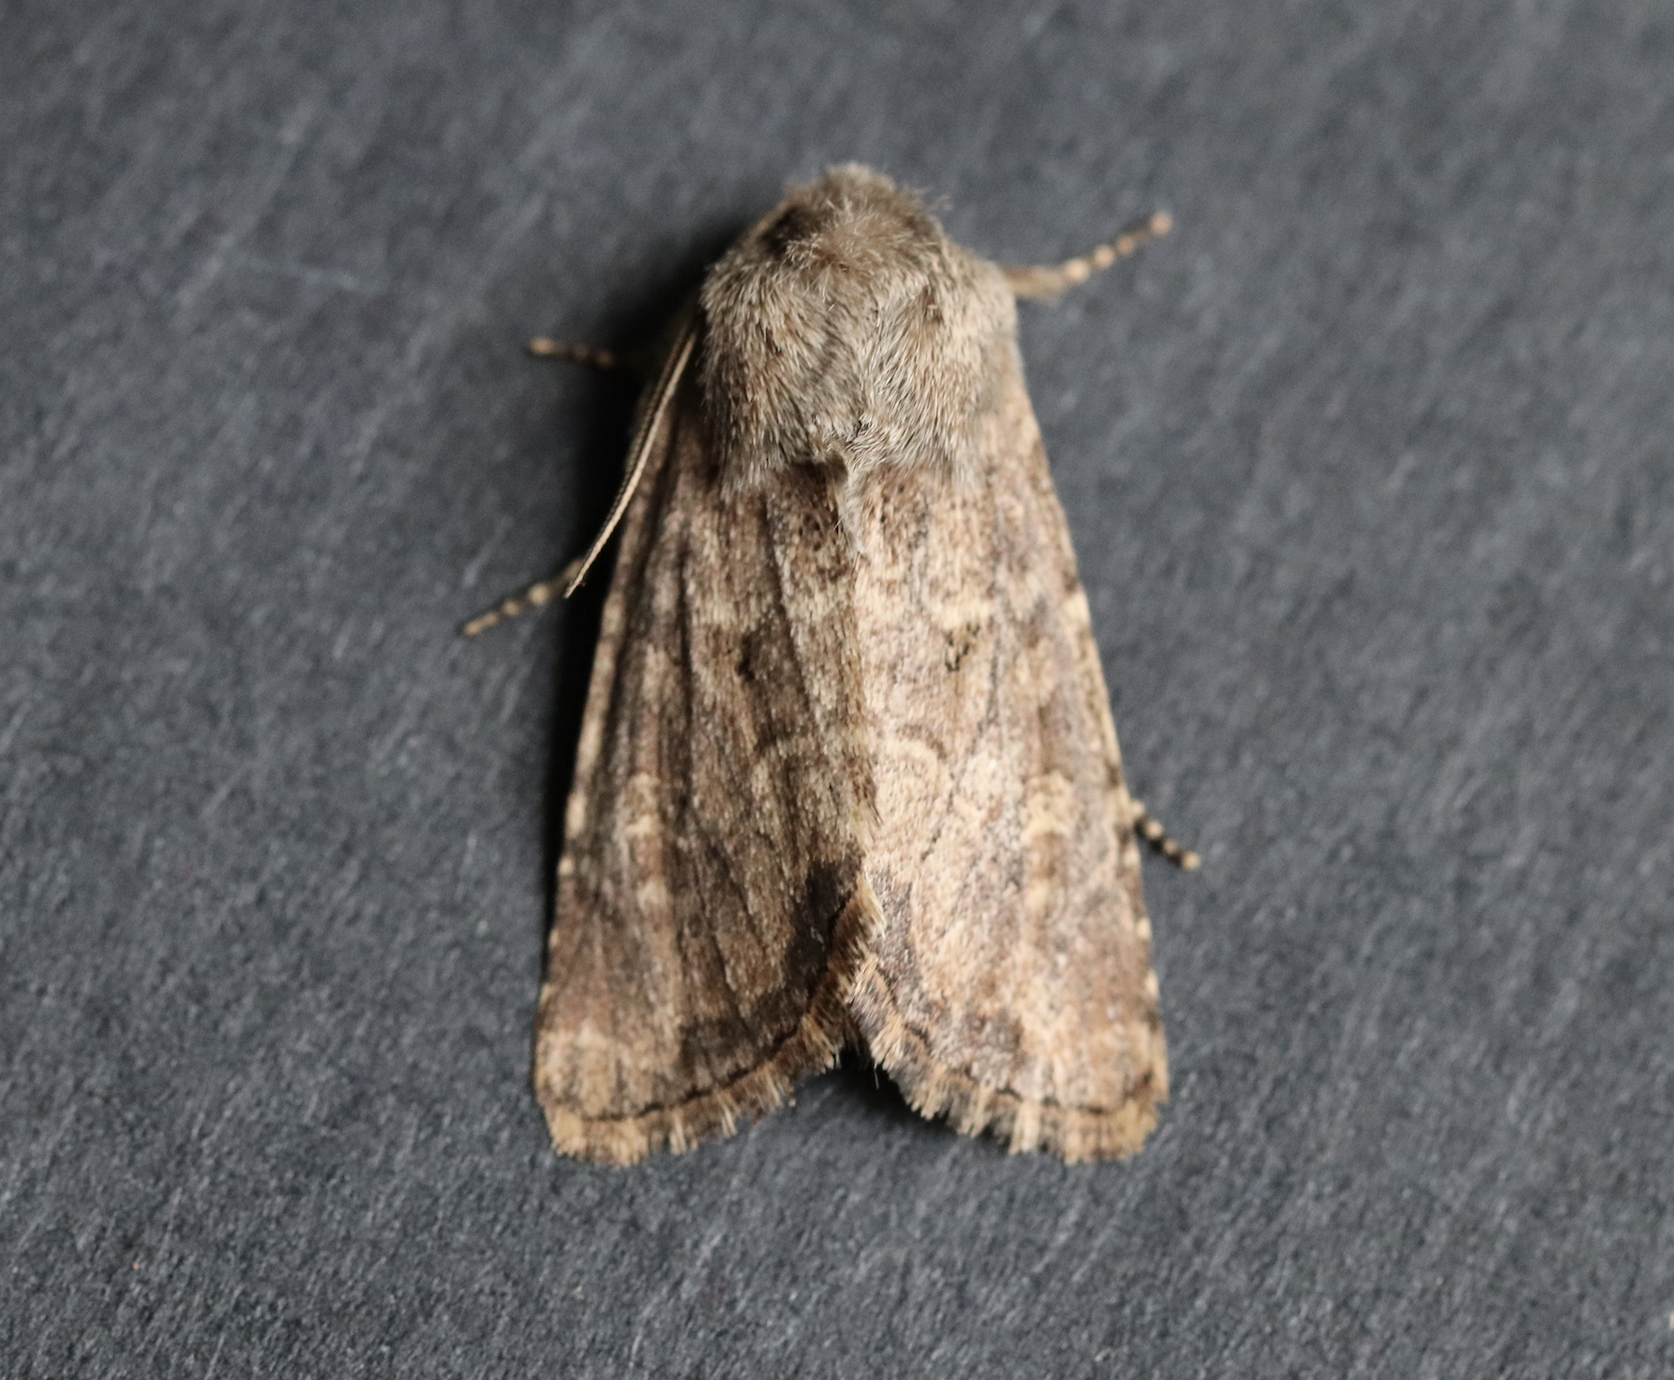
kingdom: Animalia
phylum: Arthropoda
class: Insecta
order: Lepidoptera
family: Noctuidae
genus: Luperina
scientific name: Luperina testacea
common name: Flounced rustic
